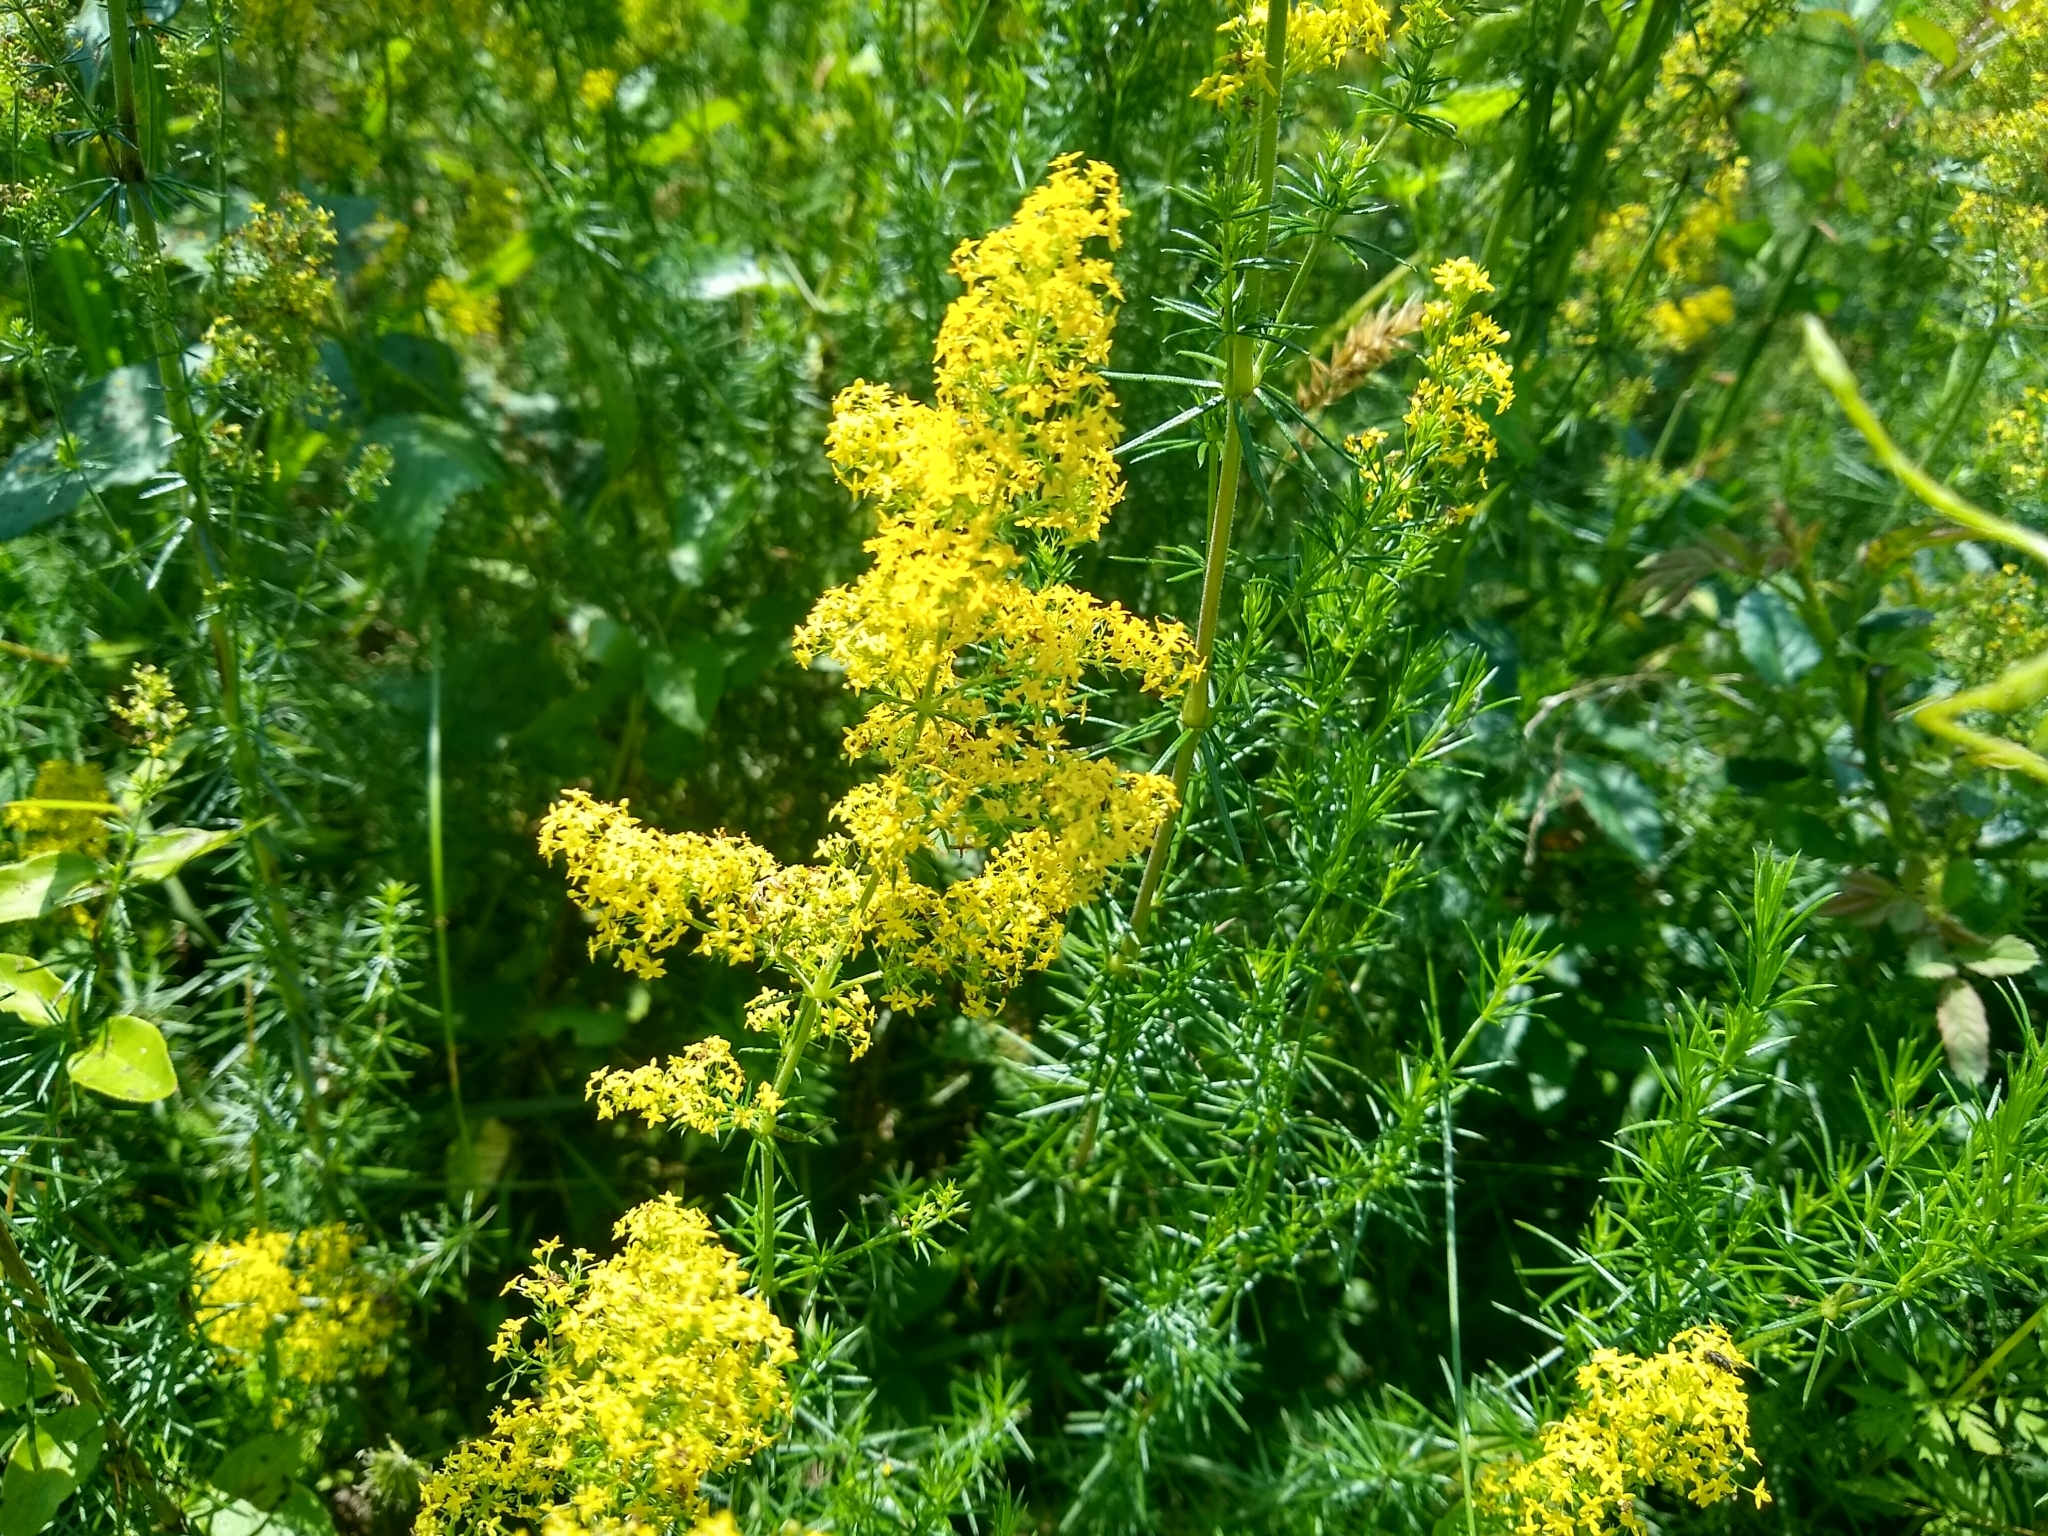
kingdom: Plantae
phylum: Tracheophyta
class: Magnoliopsida
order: Gentianales
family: Rubiaceae
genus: Galium
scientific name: Galium verum
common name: Lady's bedstraw
